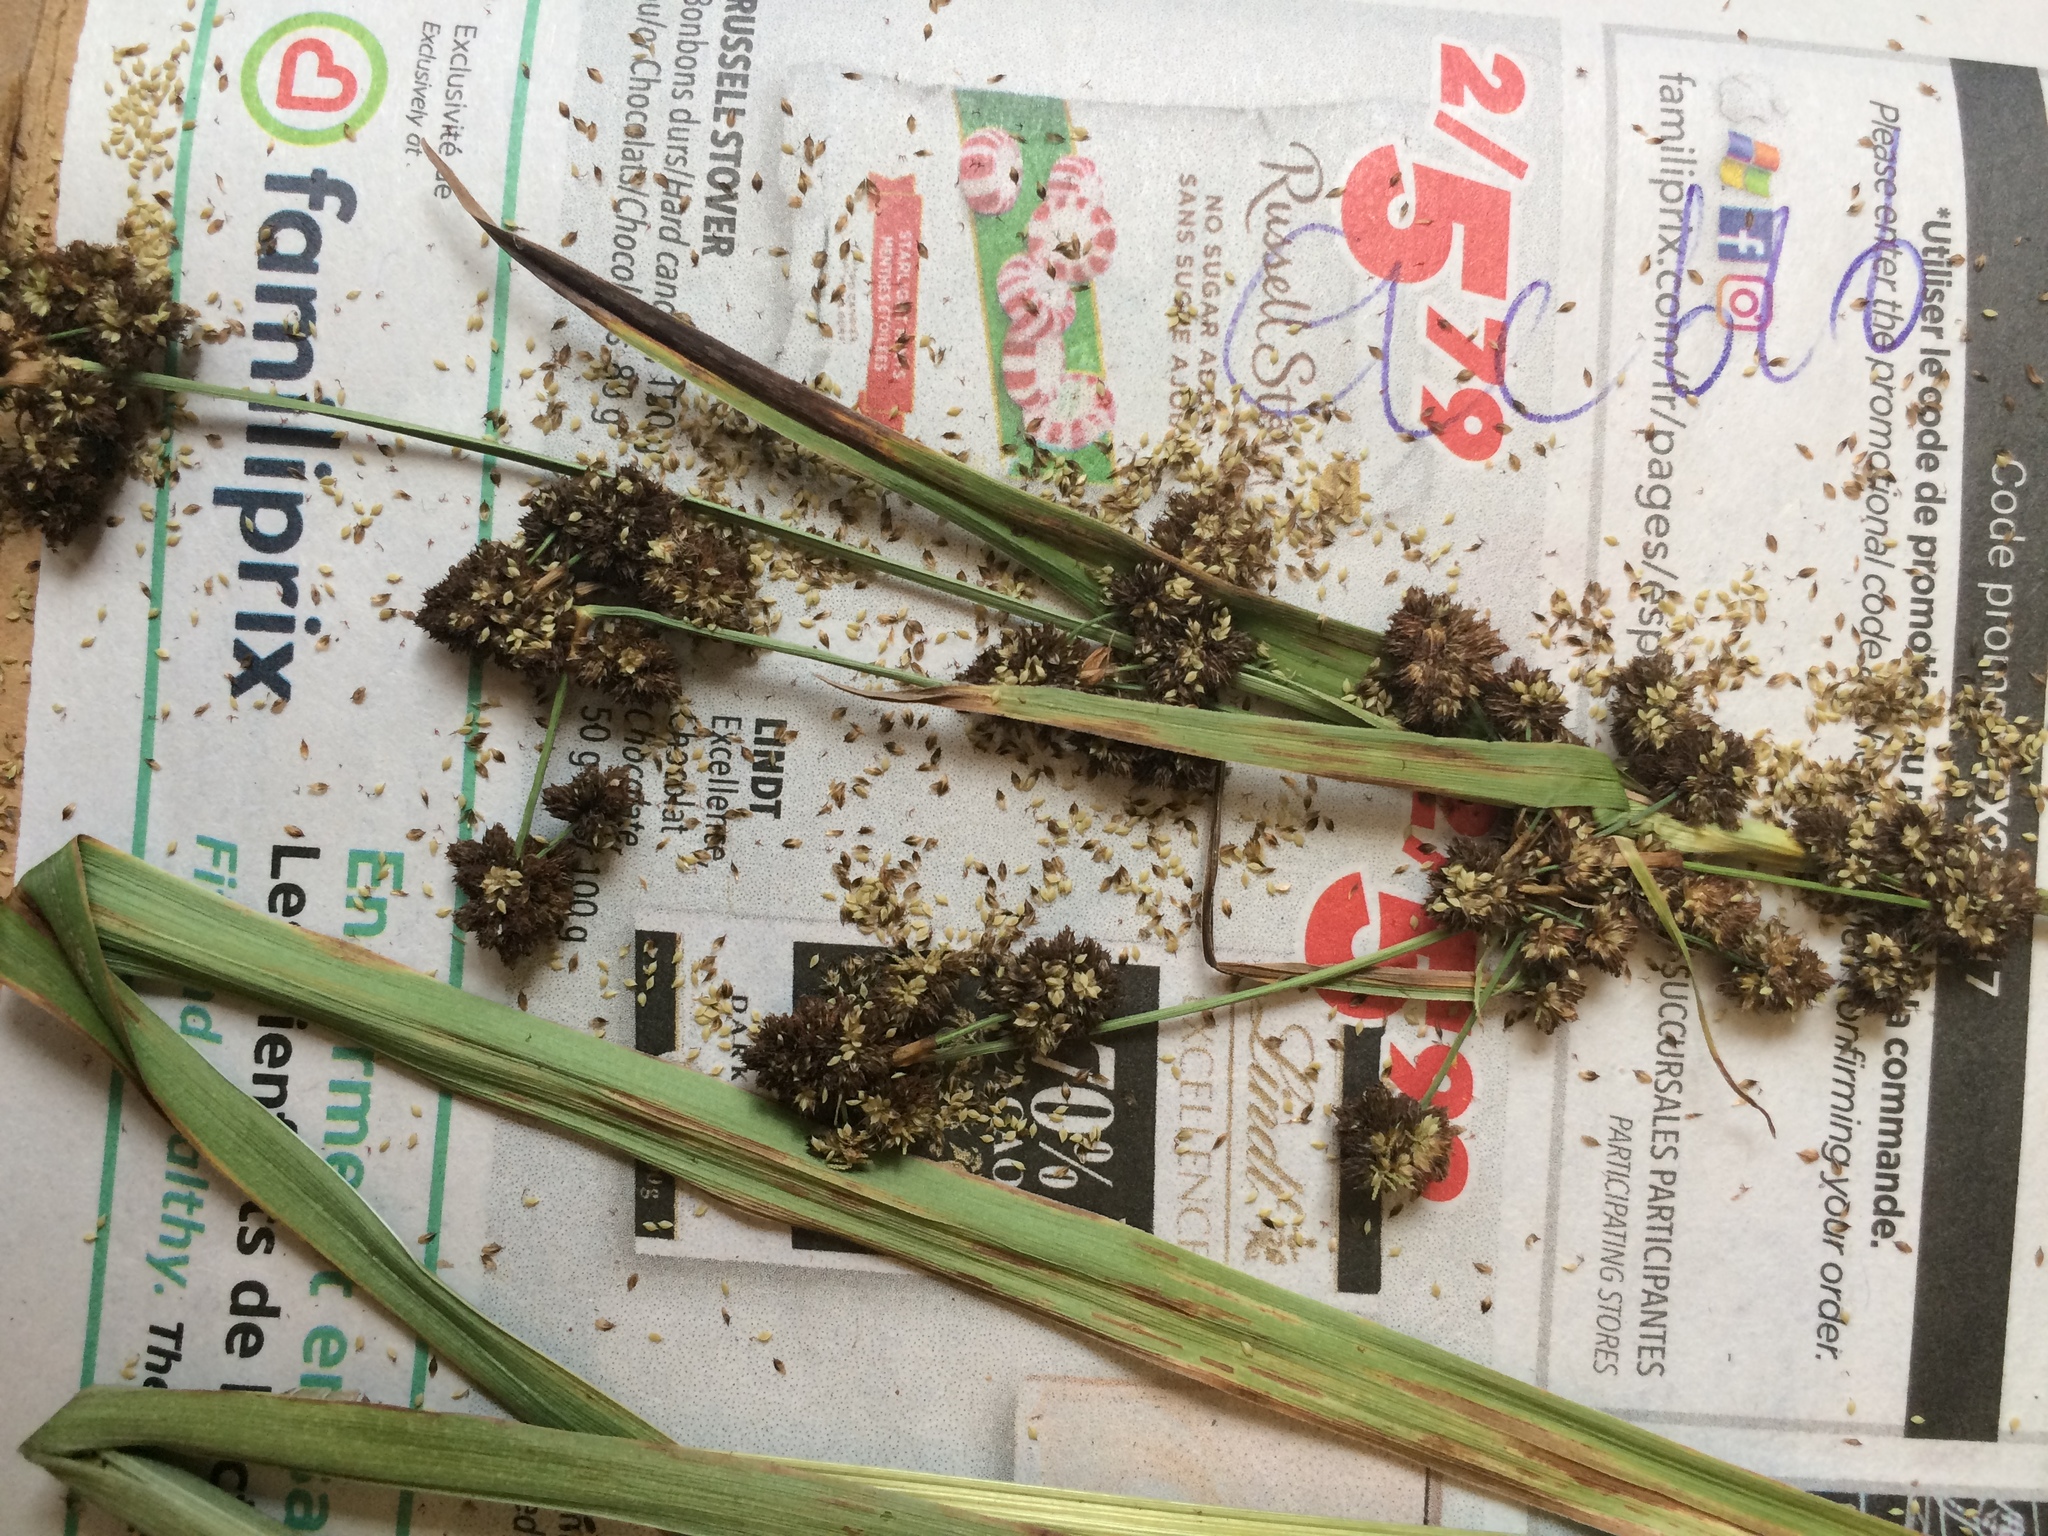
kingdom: Plantae
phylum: Tracheophyta
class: Liliopsida
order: Poales
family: Cyperaceae
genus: Scirpus
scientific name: Scirpus hattorianus
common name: Early dark-green bulrush
